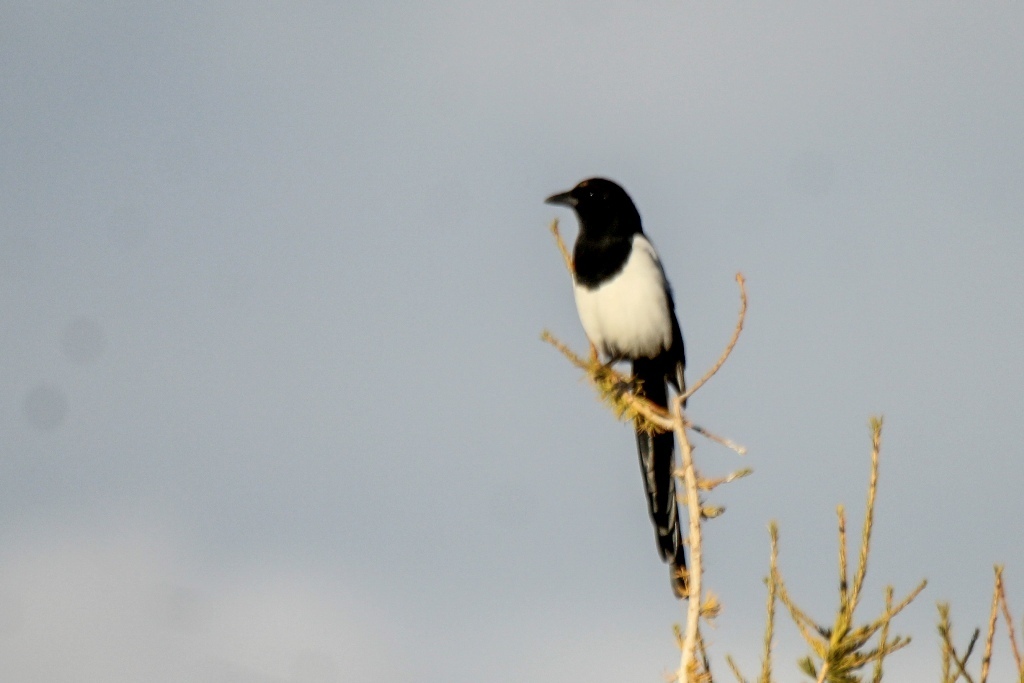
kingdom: Animalia
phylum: Chordata
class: Aves
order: Passeriformes
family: Corvidae
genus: Pica
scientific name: Pica pica
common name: Eurasian magpie
